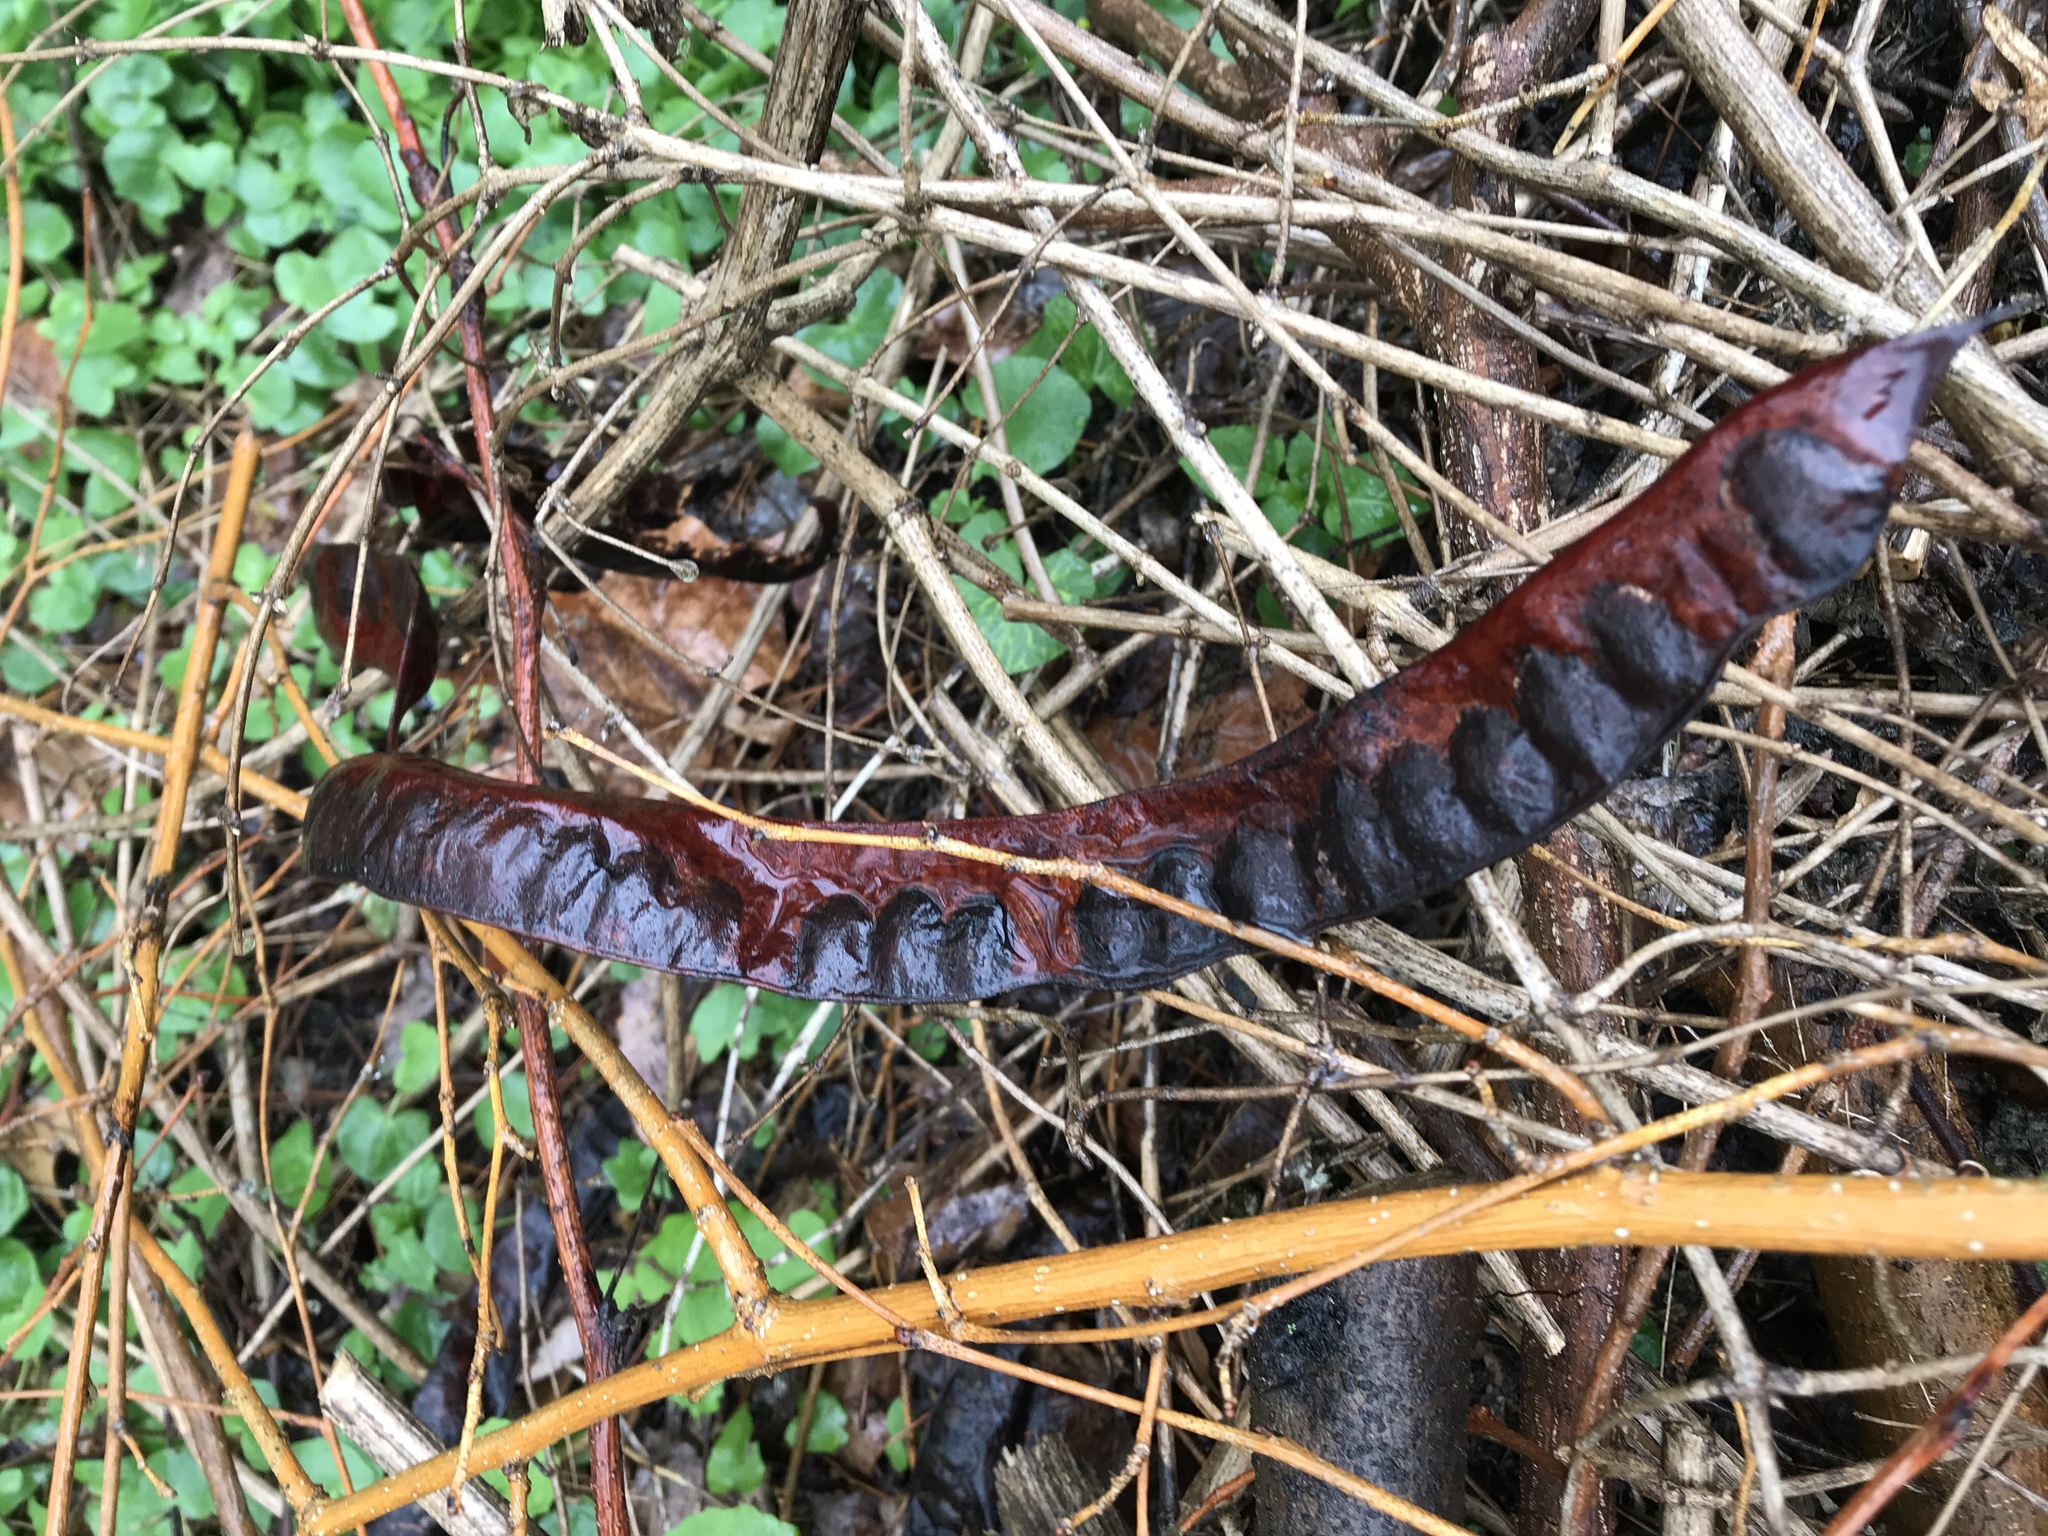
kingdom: Plantae
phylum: Tracheophyta
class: Magnoliopsida
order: Fabales
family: Fabaceae
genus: Gleditsia
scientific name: Gleditsia triacanthos
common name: Common honeylocust
